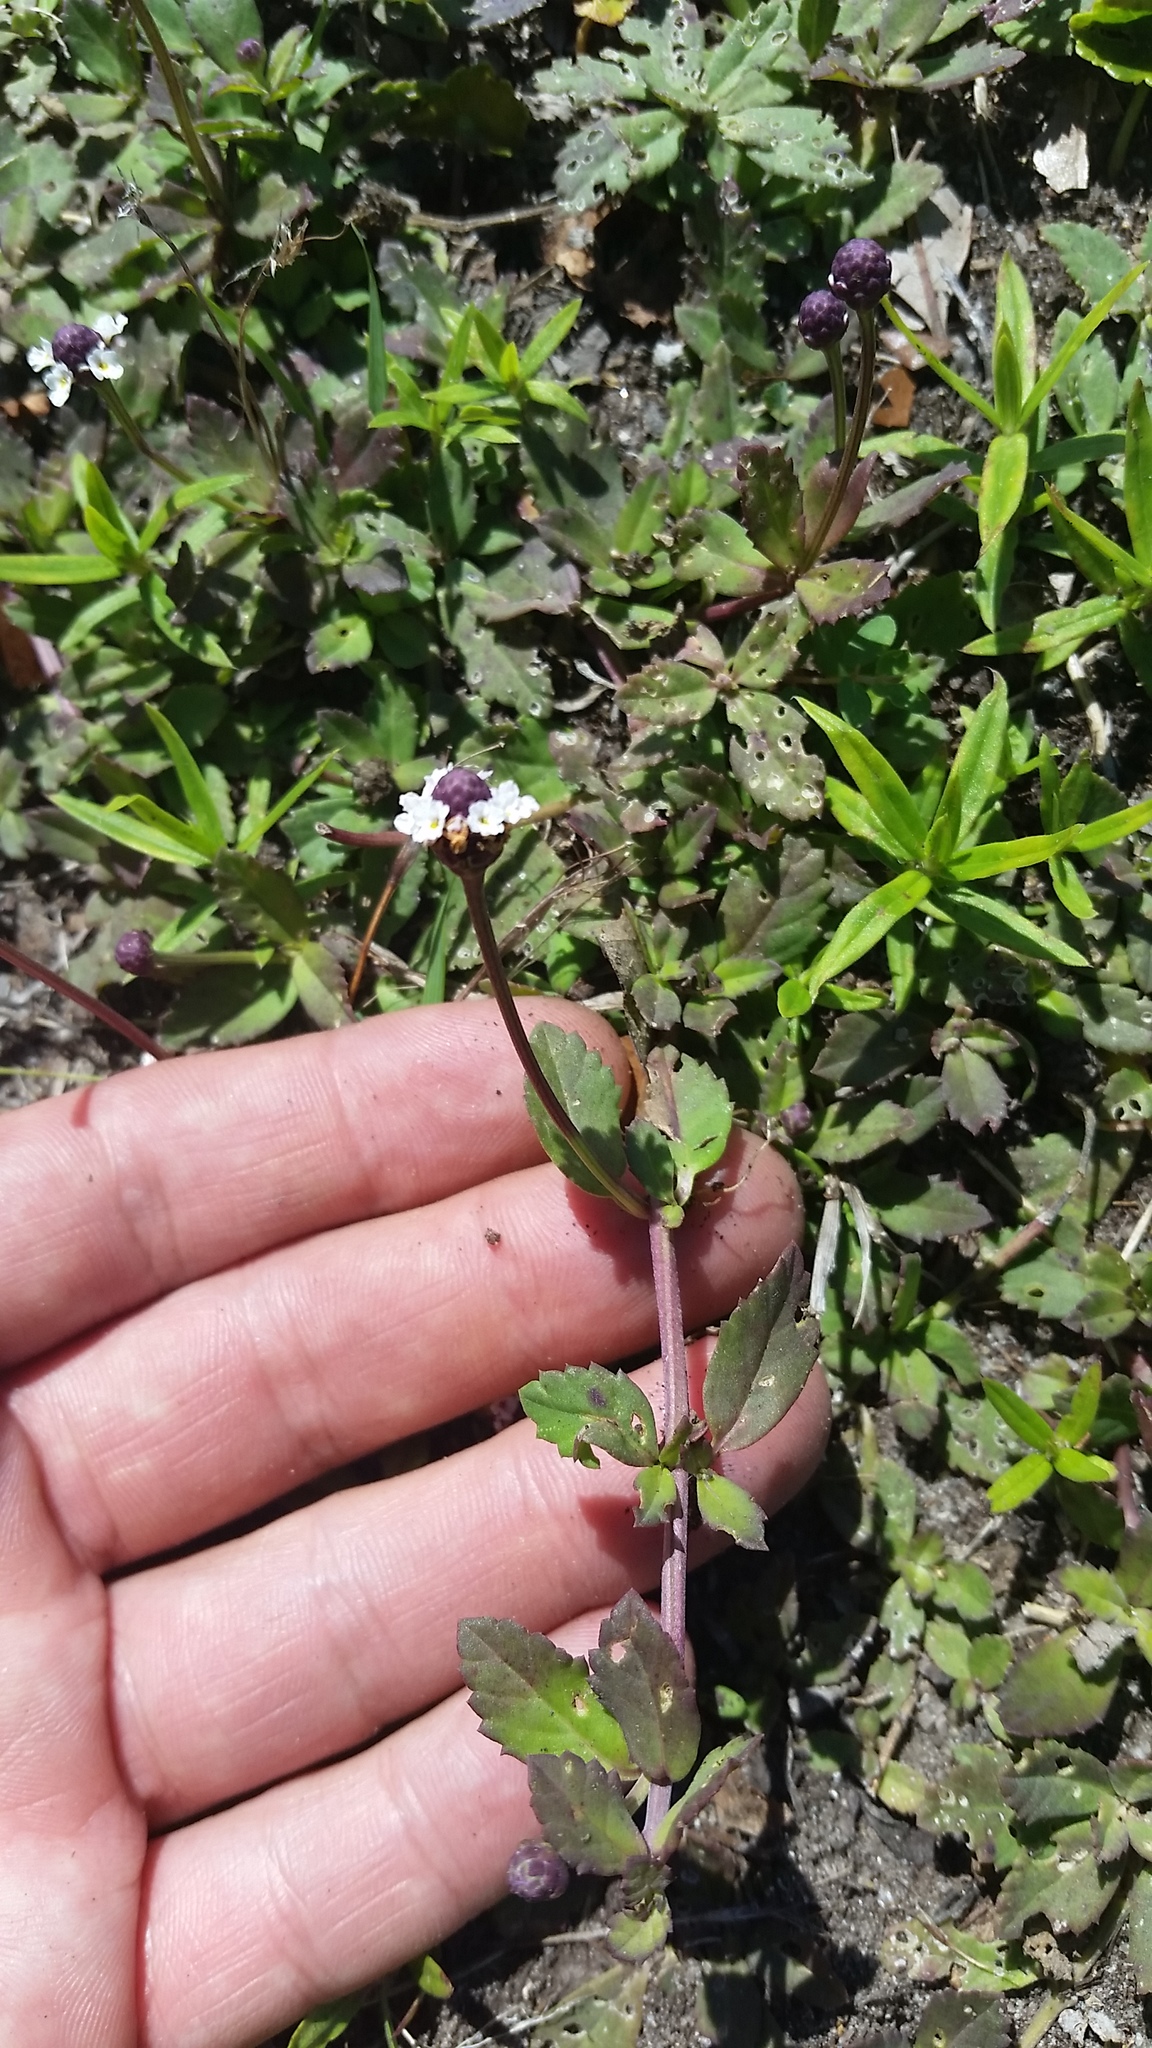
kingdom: Plantae
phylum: Tracheophyta
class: Magnoliopsida
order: Lamiales
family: Verbenaceae
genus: Phyla
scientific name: Phyla nodiflora
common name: Frogfruit
